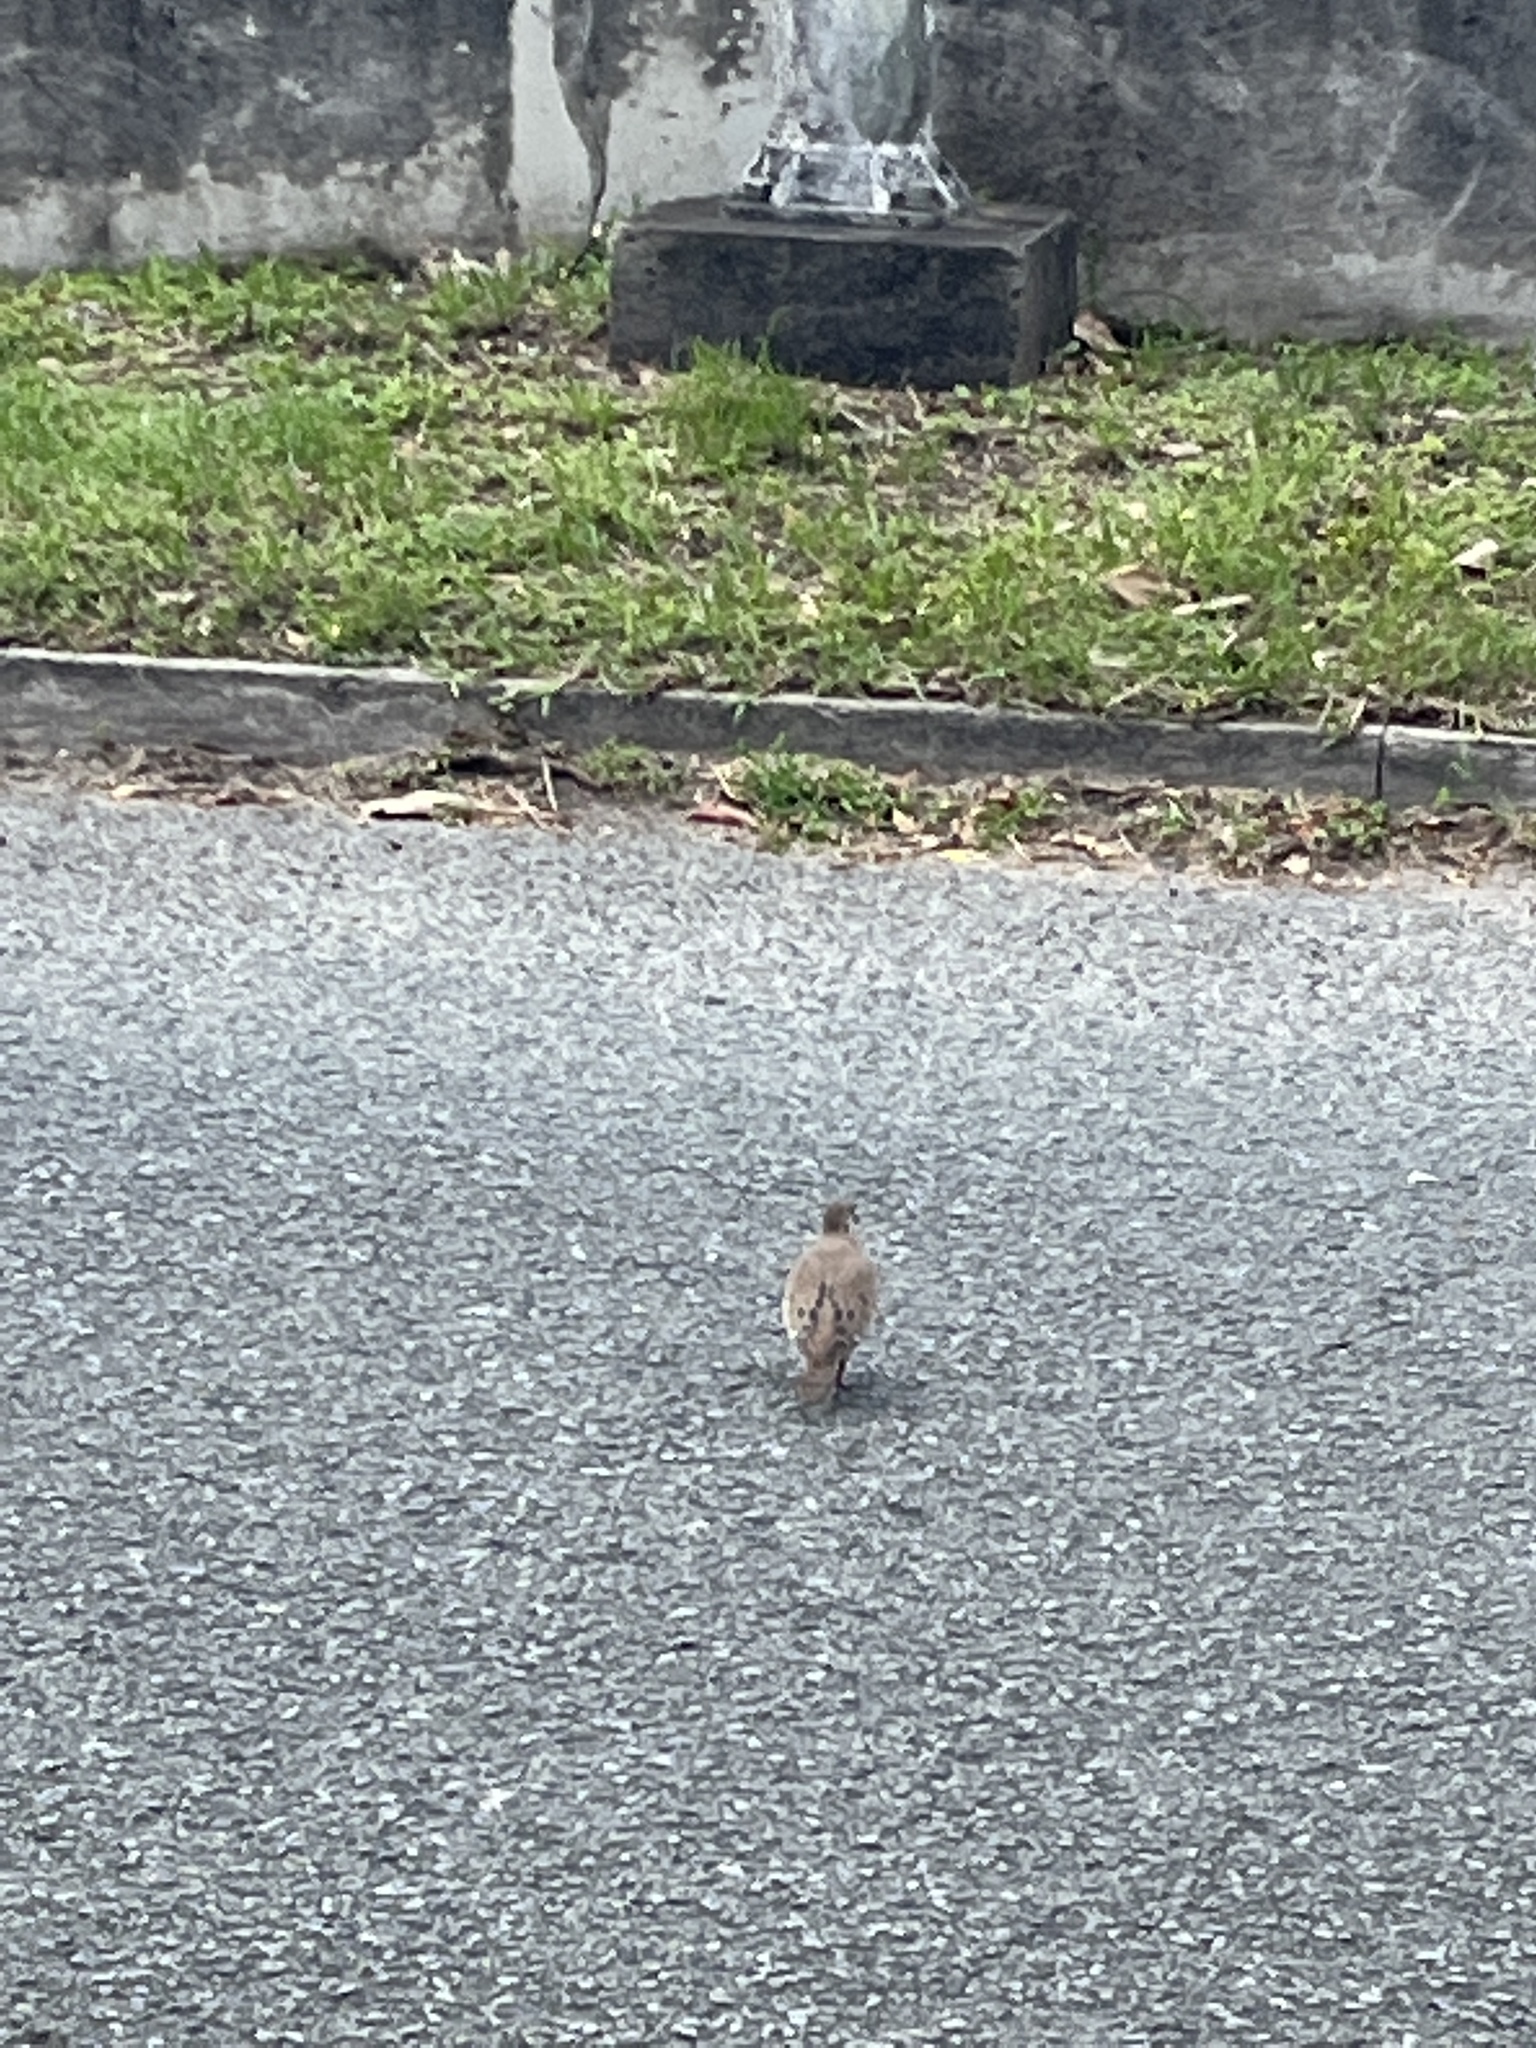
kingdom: Animalia
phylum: Chordata
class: Aves
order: Columbiformes
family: Columbidae
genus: Zenaida
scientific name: Zenaida aurita
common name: Zenaida dove
